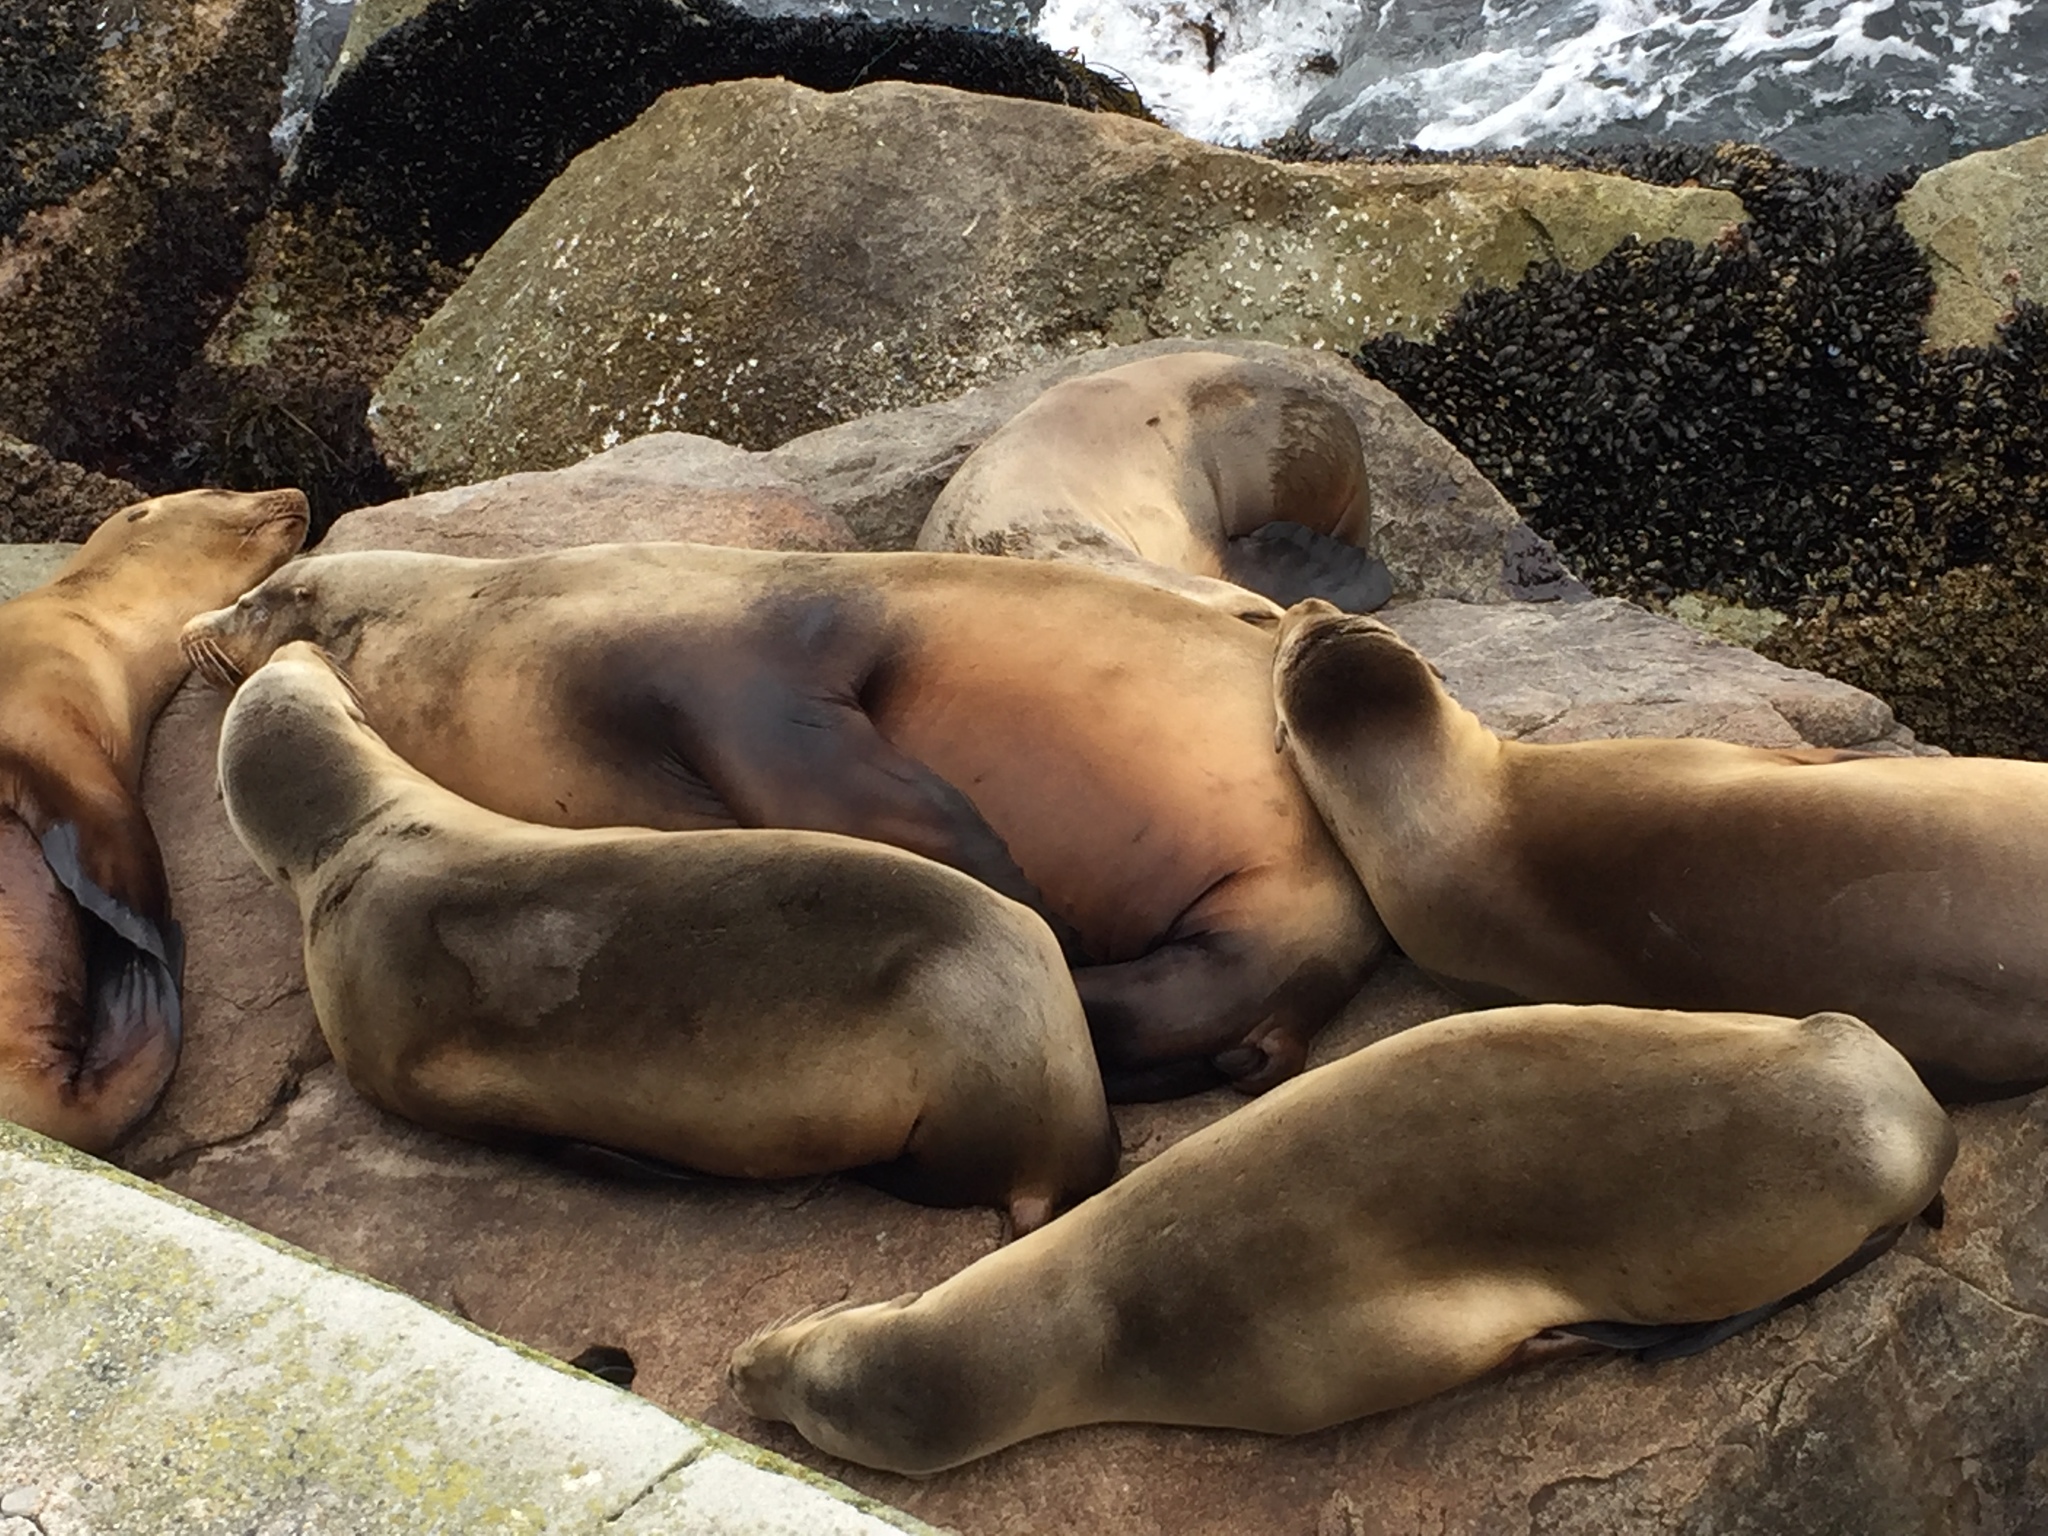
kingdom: Animalia
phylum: Chordata
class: Mammalia
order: Carnivora
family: Otariidae
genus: Zalophus
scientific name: Zalophus californianus
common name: California sea lion
